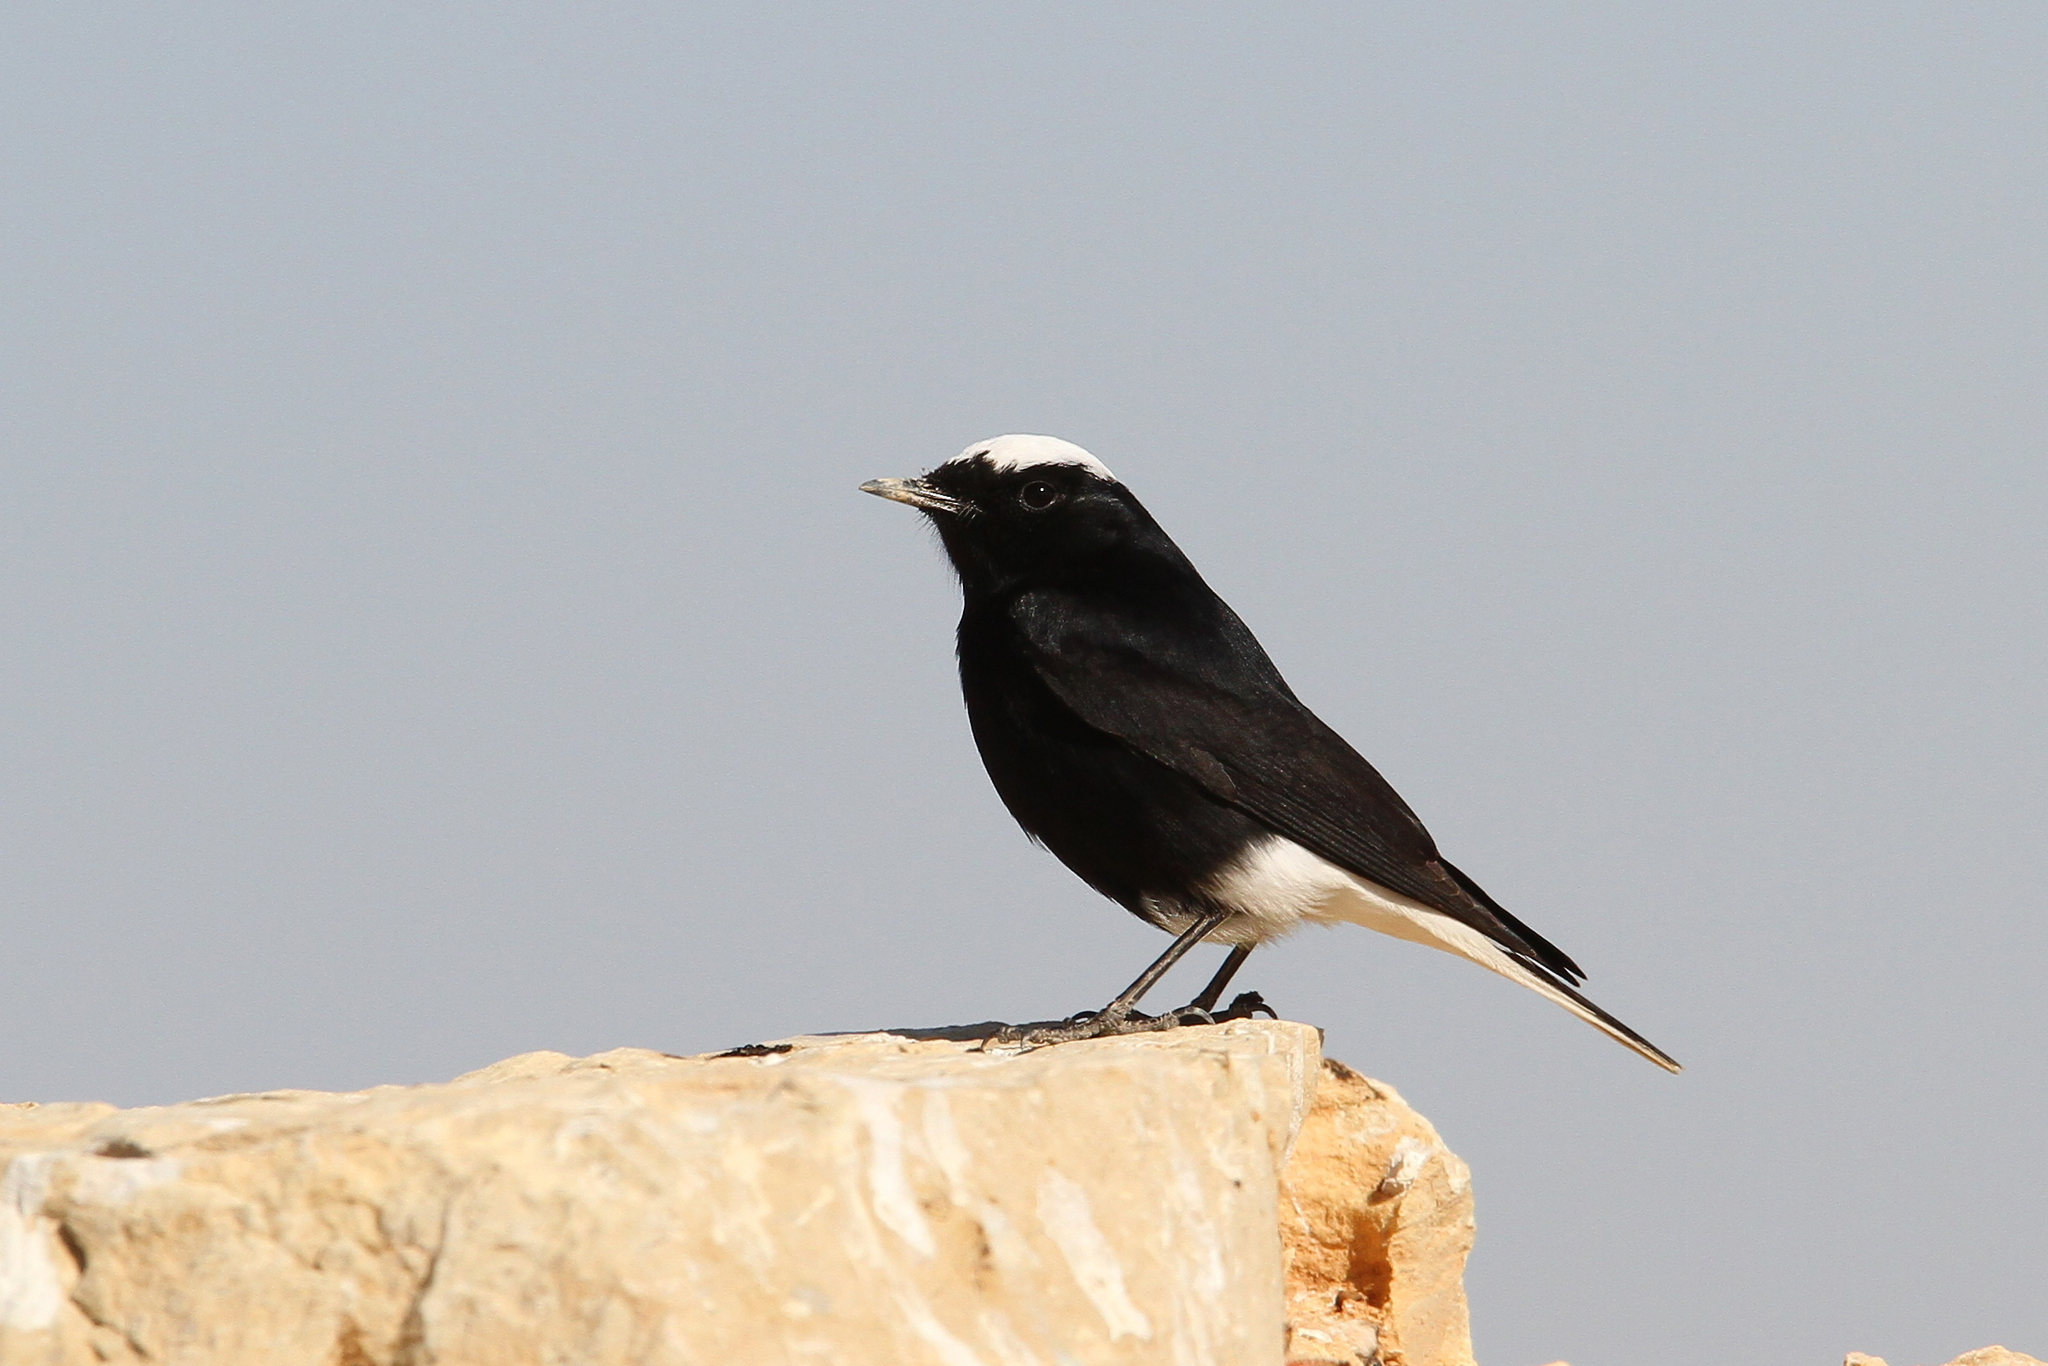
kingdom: Animalia
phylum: Chordata
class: Aves
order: Passeriformes
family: Muscicapidae
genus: Oenanthe
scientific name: Oenanthe leucopyga
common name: White-crowned wheatear
